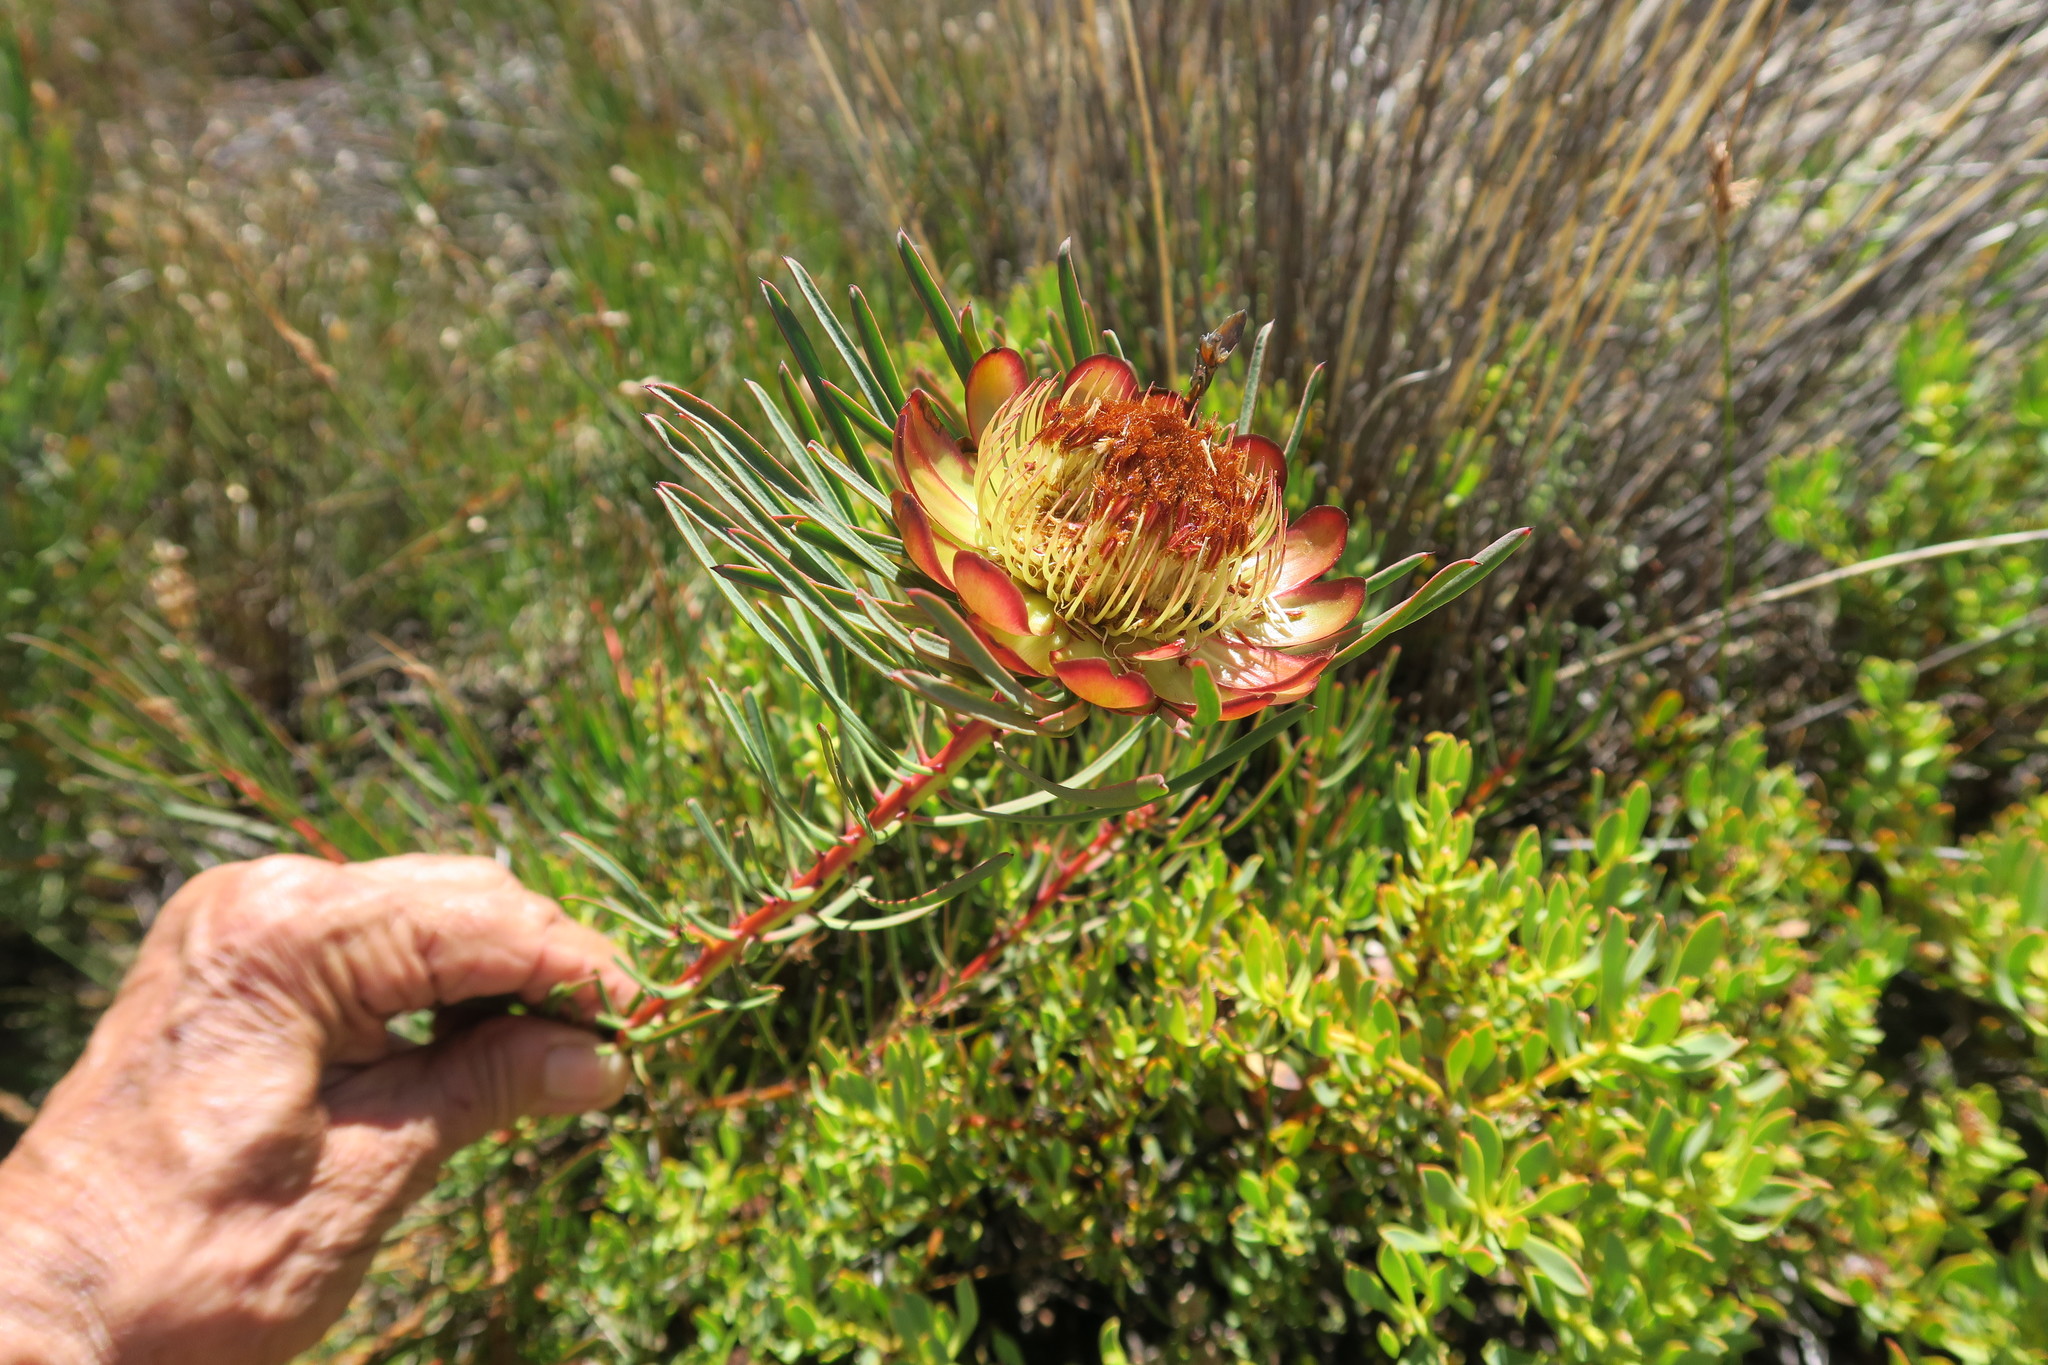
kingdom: Plantae
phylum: Tracheophyta
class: Magnoliopsida
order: Proteales
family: Proteaceae
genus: Protea
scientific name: Protea acuminata
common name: Black-rim sugarbush
